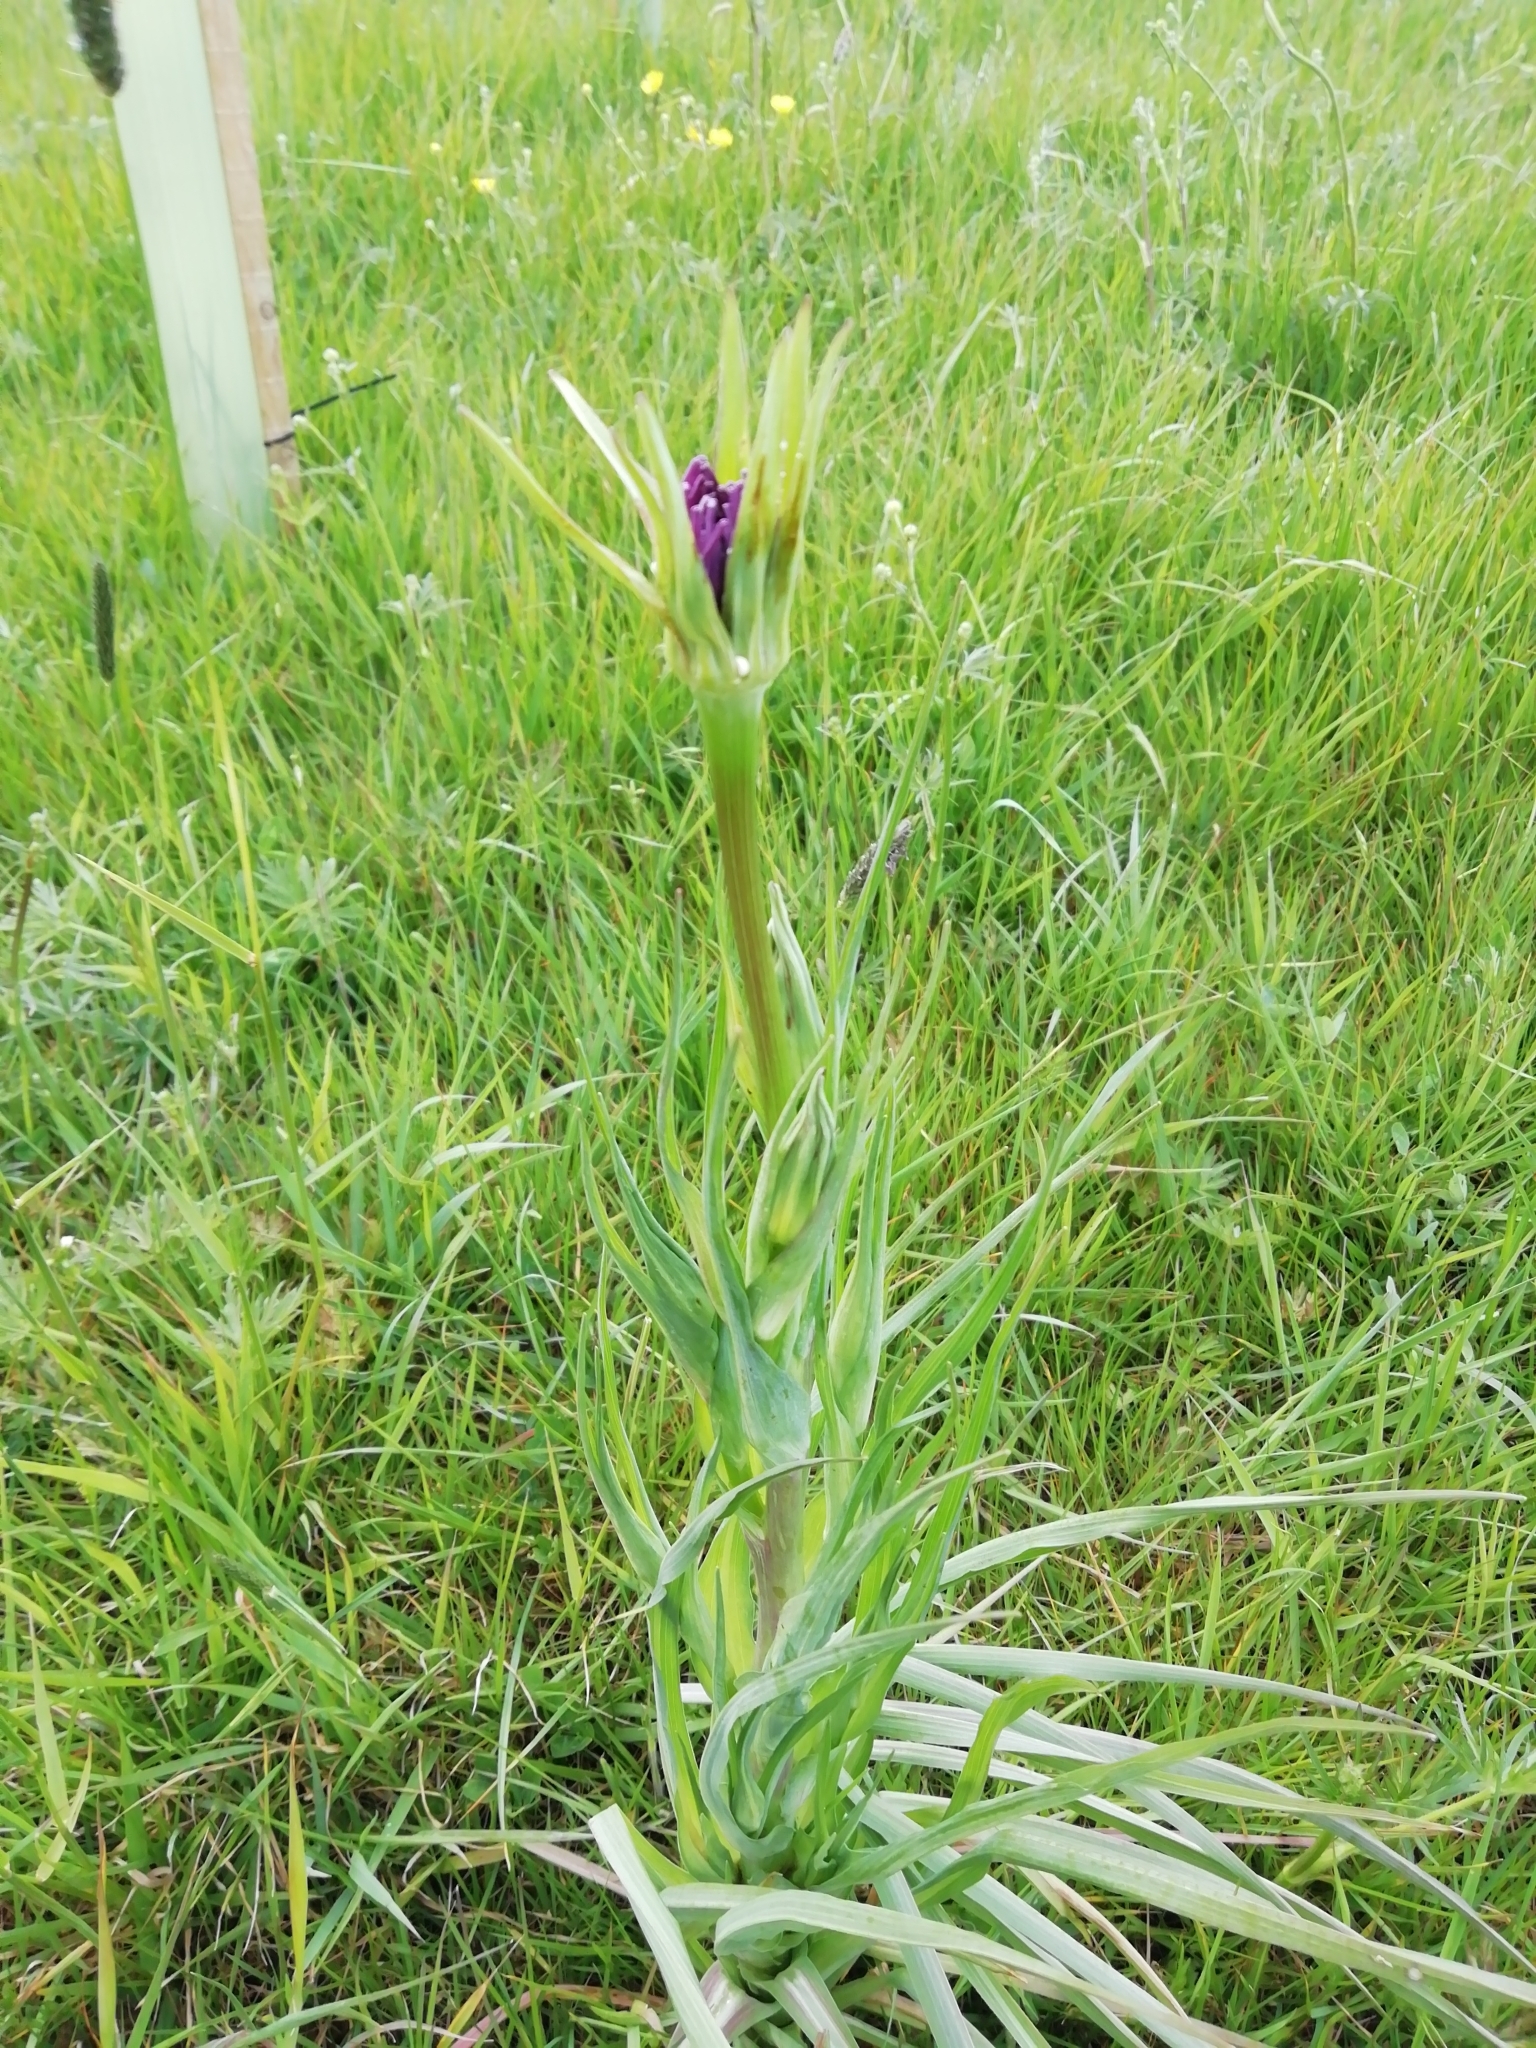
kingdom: Plantae
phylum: Tracheophyta
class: Magnoliopsida
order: Asterales
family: Asteraceae
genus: Tragopogon
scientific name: Tragopogon porrifolius
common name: Salsify
